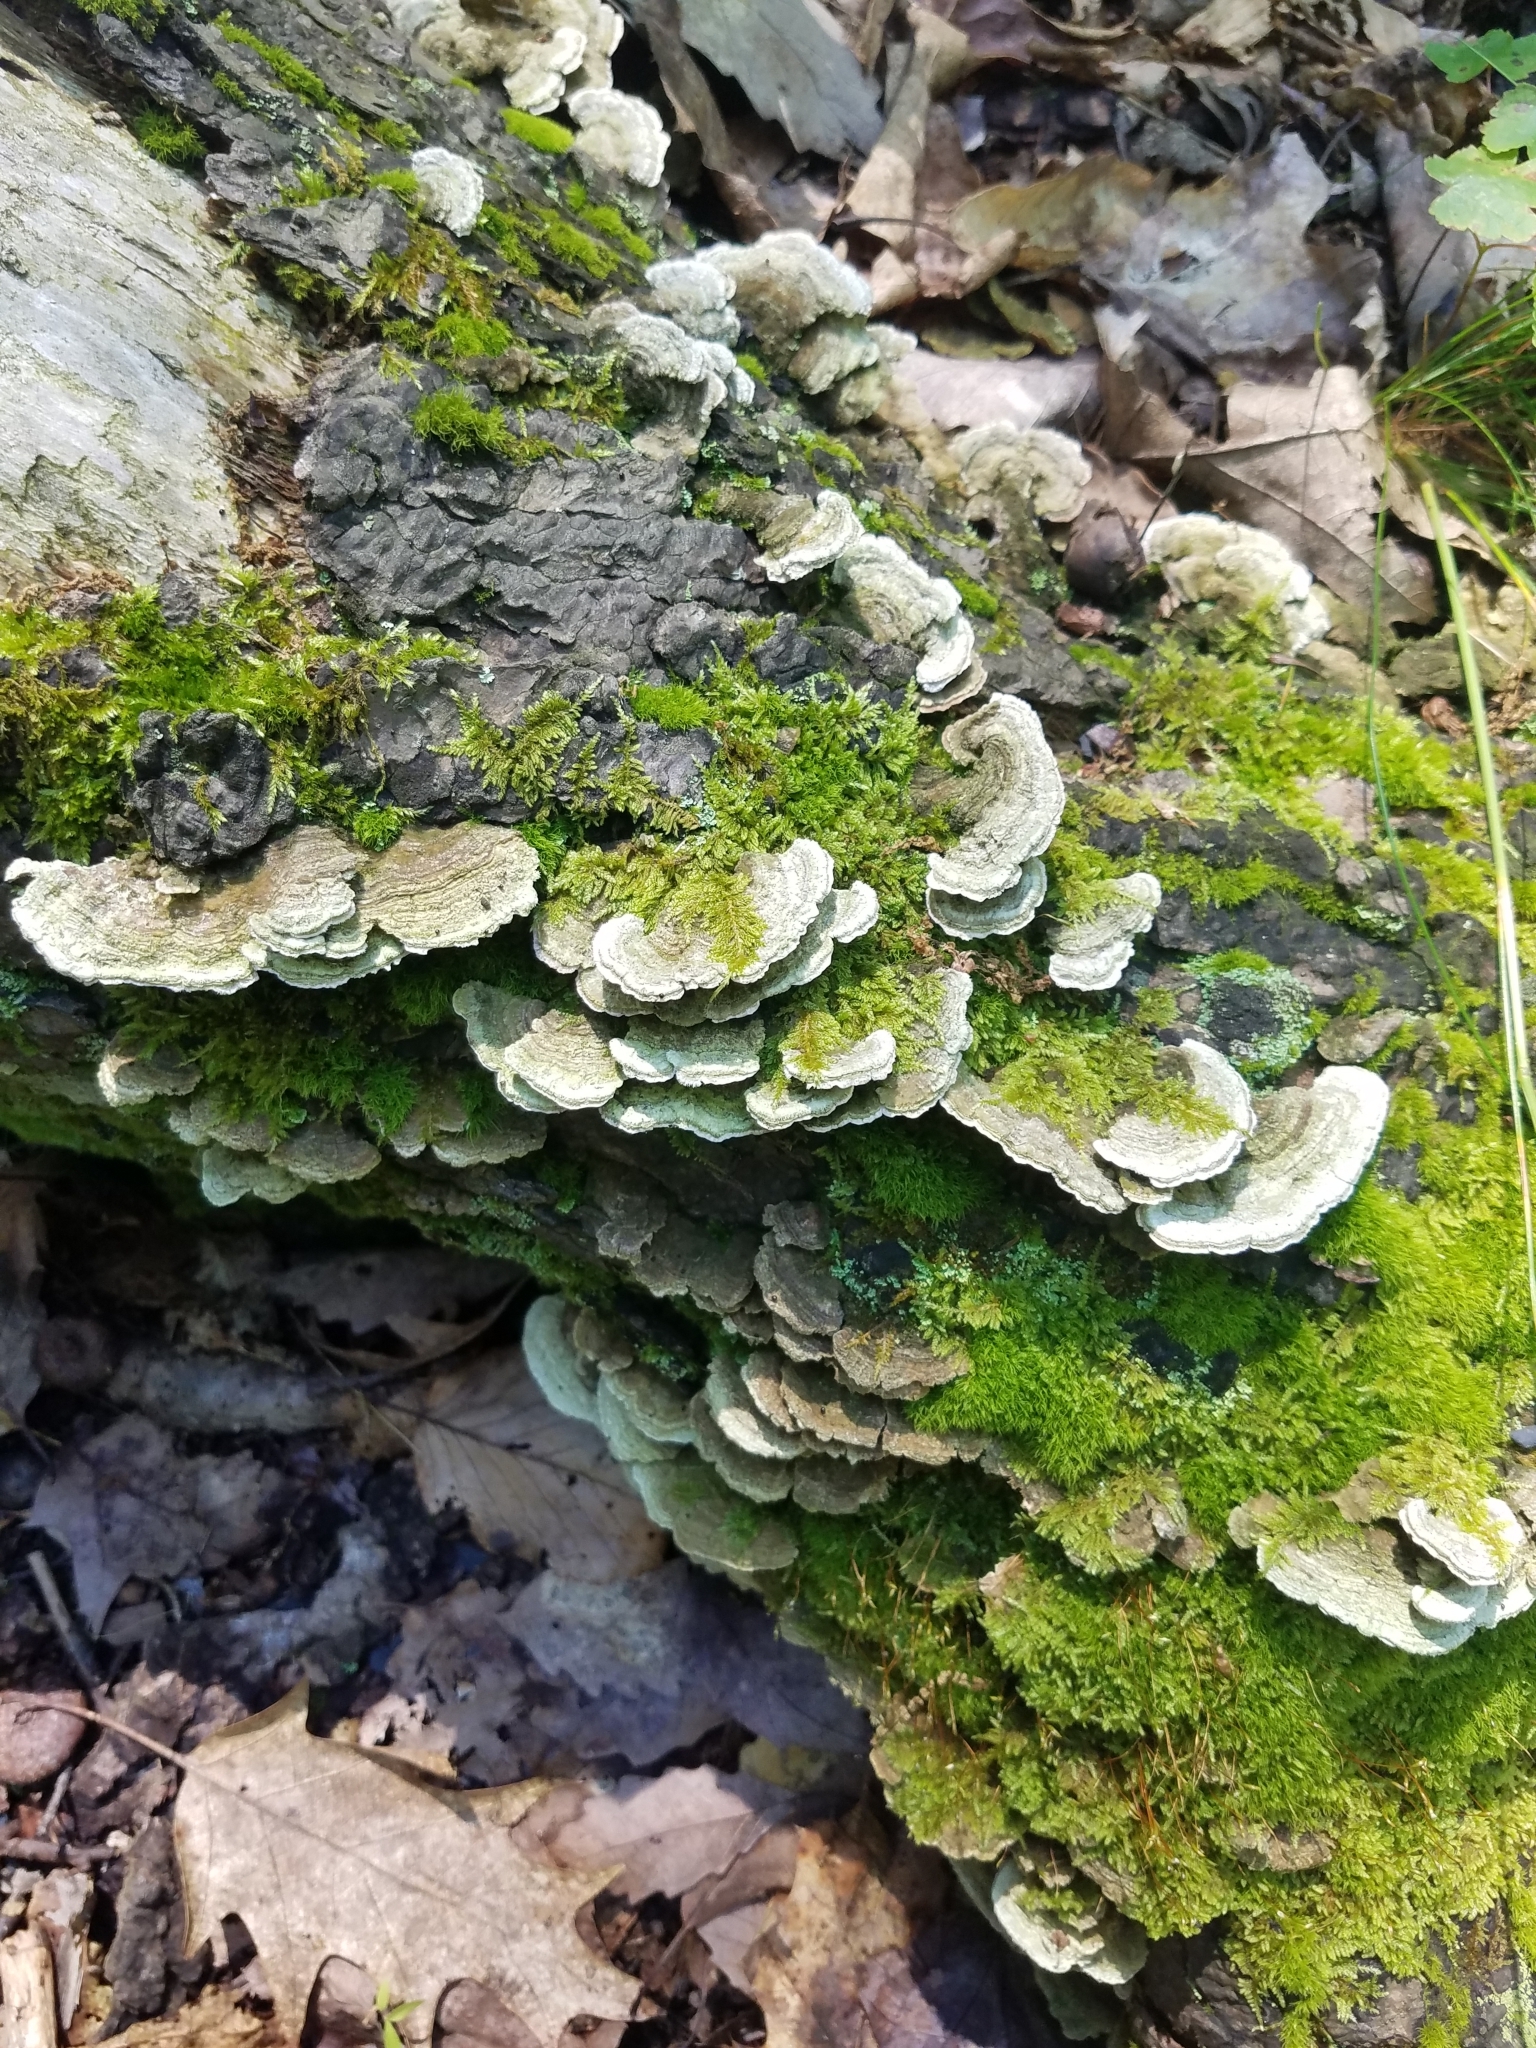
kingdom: Fungi
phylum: Basidiomycota
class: Agaricomycetes
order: Polyporales
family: Cerrenaceae
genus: Cerrena
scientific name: Cerrena unicolor
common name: Mossy maze polypore
